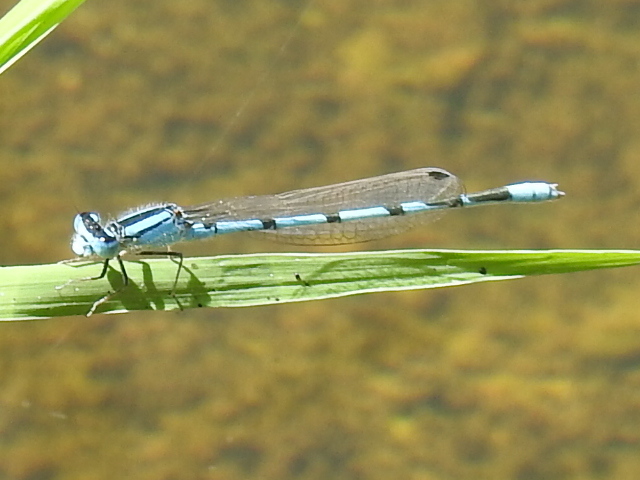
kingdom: Animalia
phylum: Arthropoda
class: Insecta
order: Odonata
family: Coenagrionidae
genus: Enallagma
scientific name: Enallagma civile
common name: Damselfly
